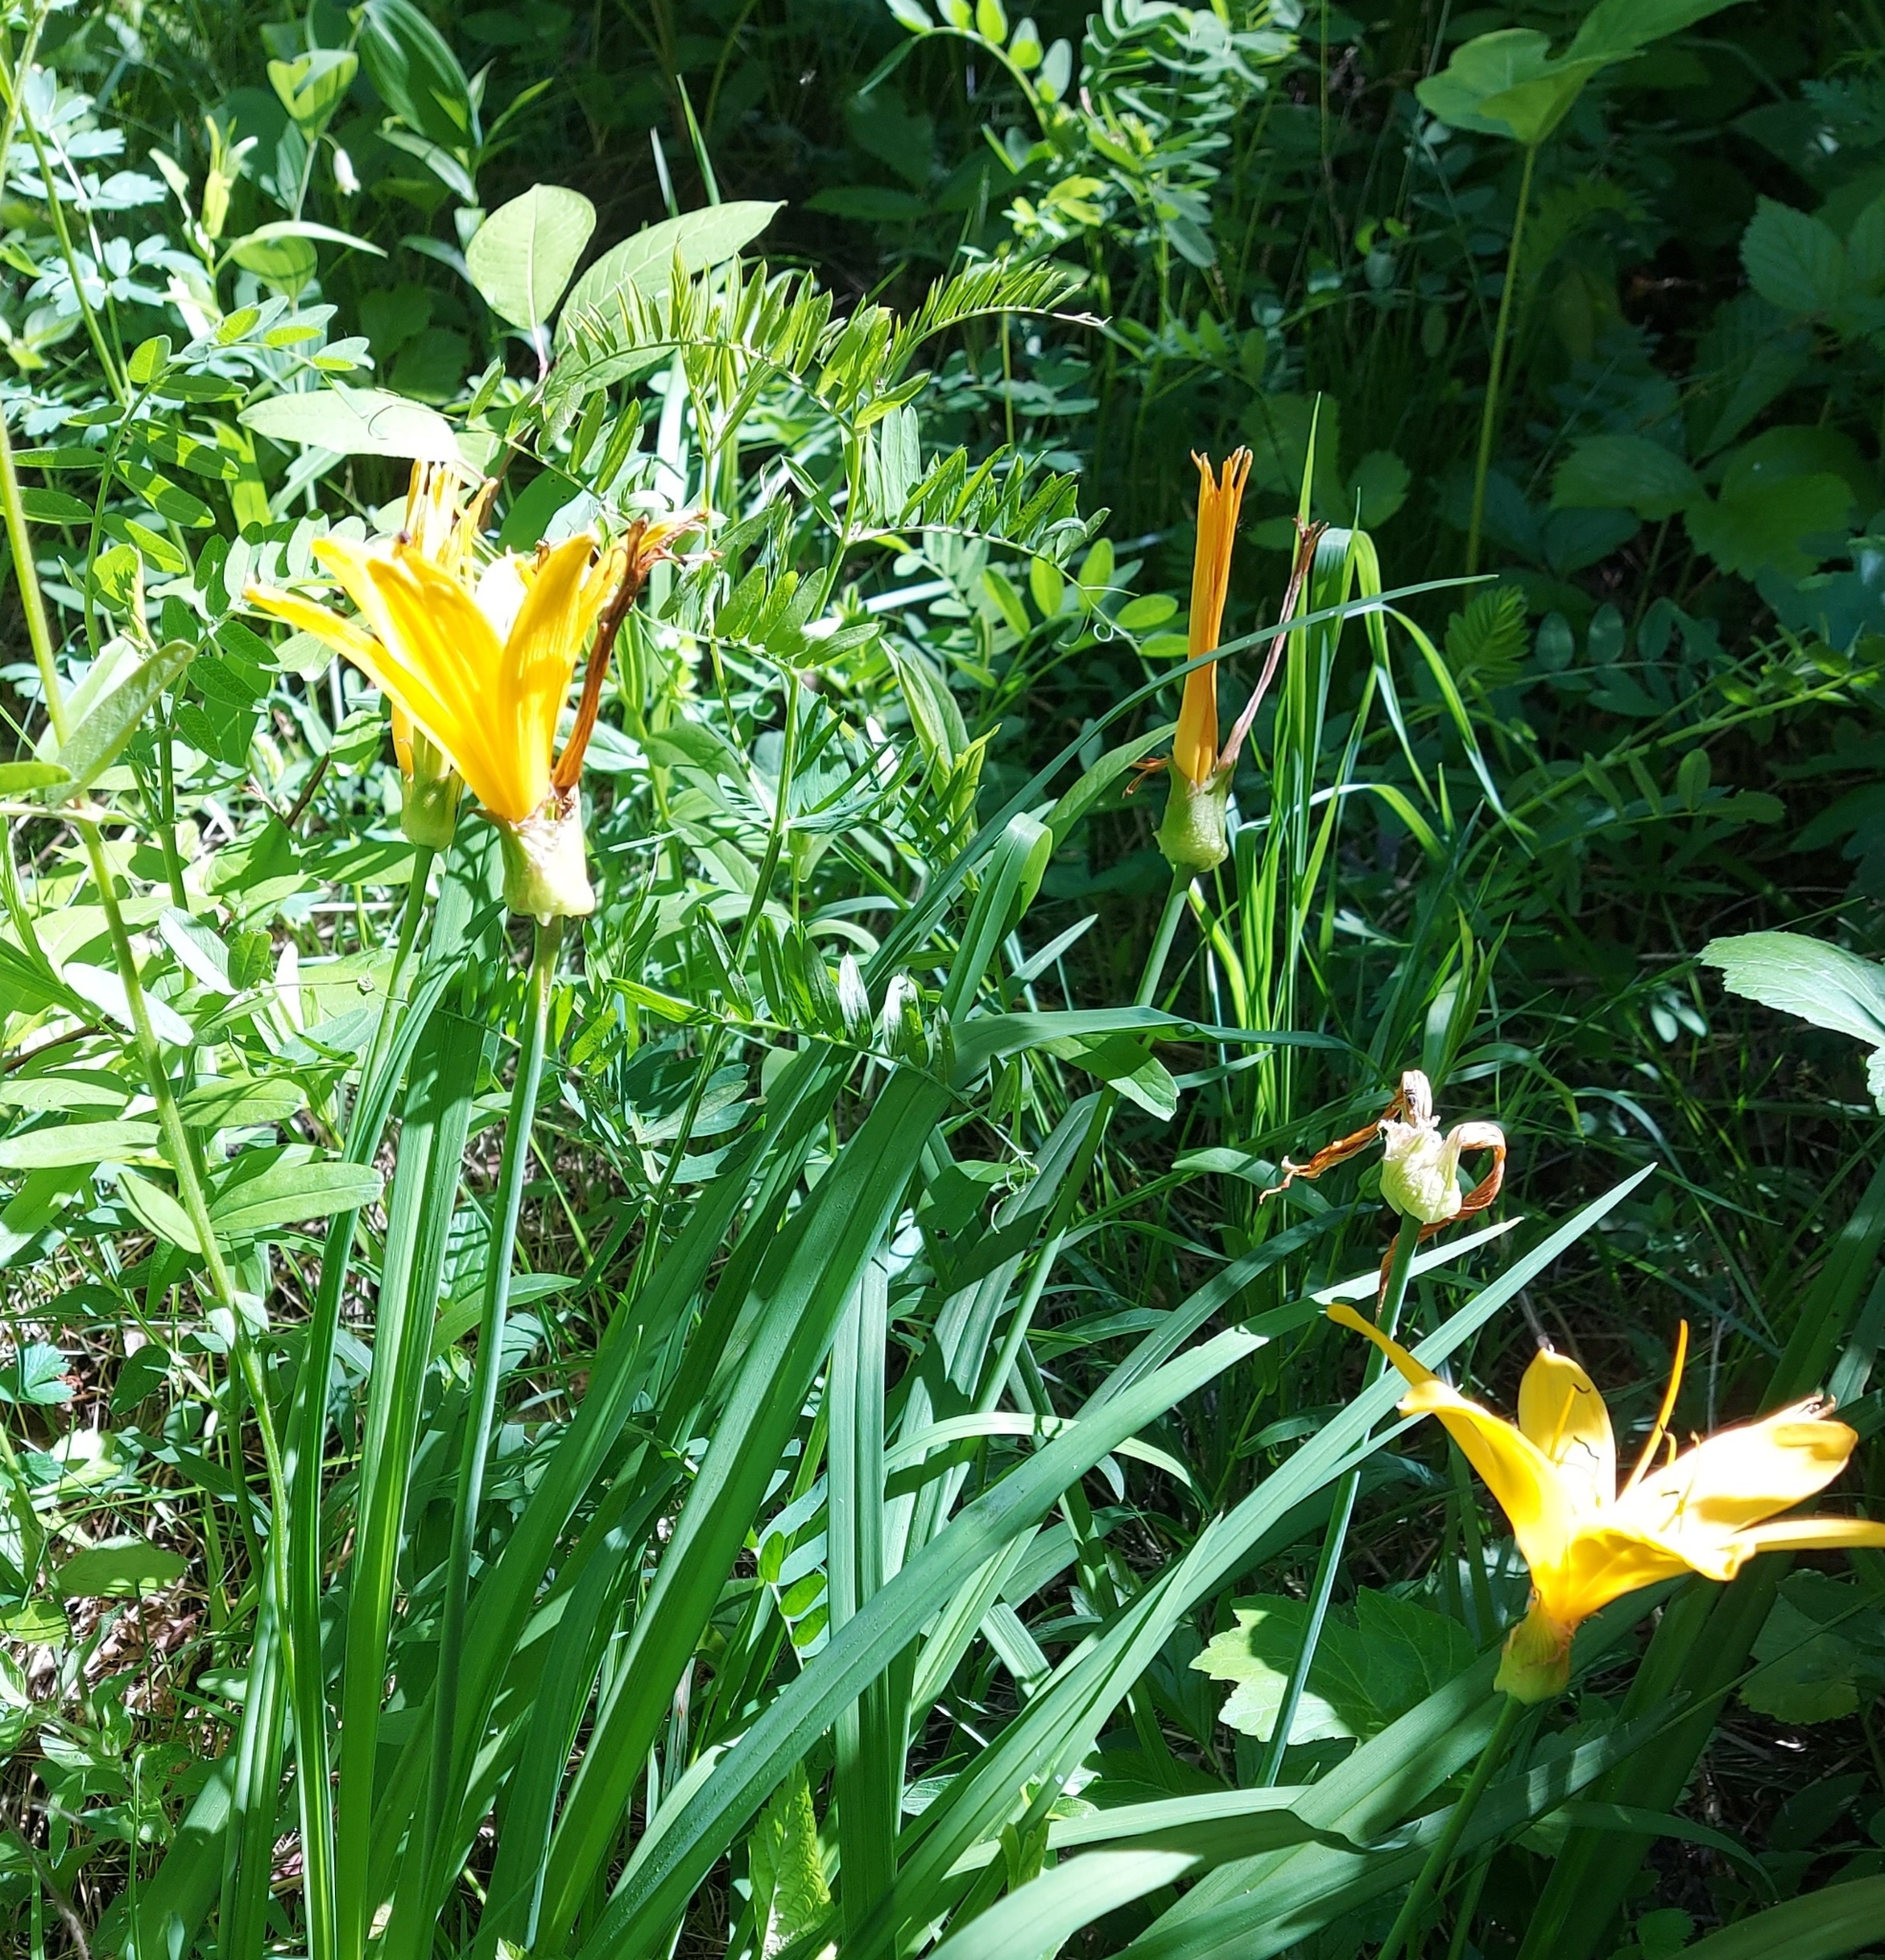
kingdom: Plantae
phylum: Tracheophyta
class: Liliopsida
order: Asparagales
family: Asphodelaceae
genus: Hemerocallis
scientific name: Hemerocallis minor
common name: Small daylily
